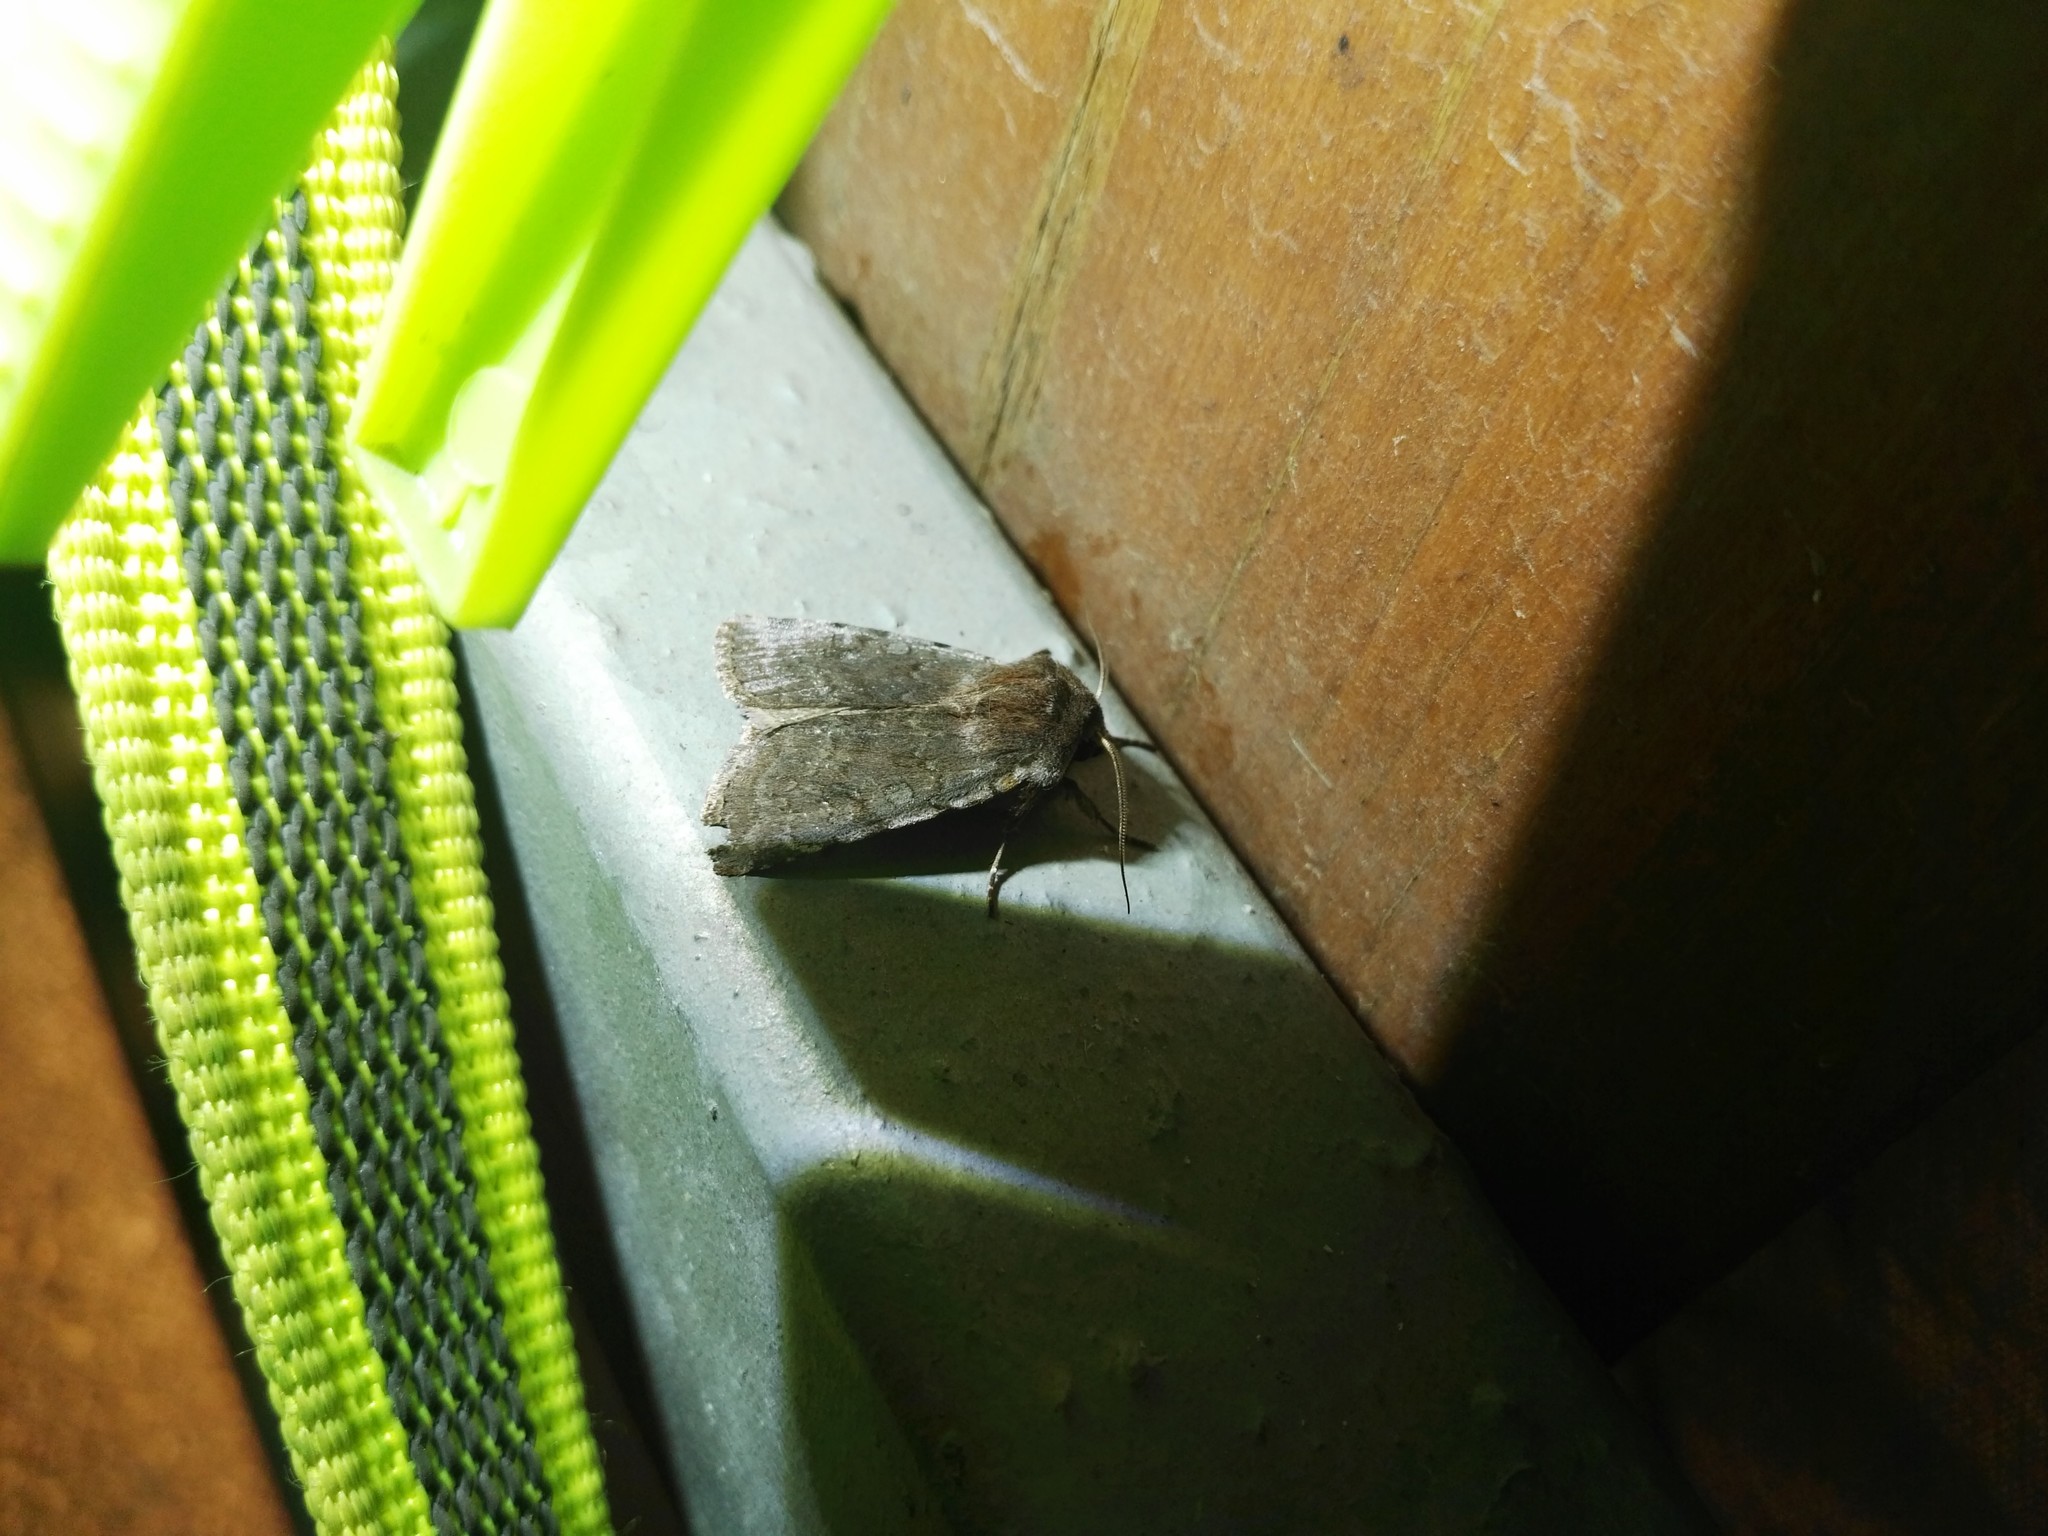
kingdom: Animalia
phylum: Arthropoda
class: Insecta
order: Lepidoptera
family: Noctuidae
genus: Cerastis
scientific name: Cerastis rubricosa
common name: Red chestnut
